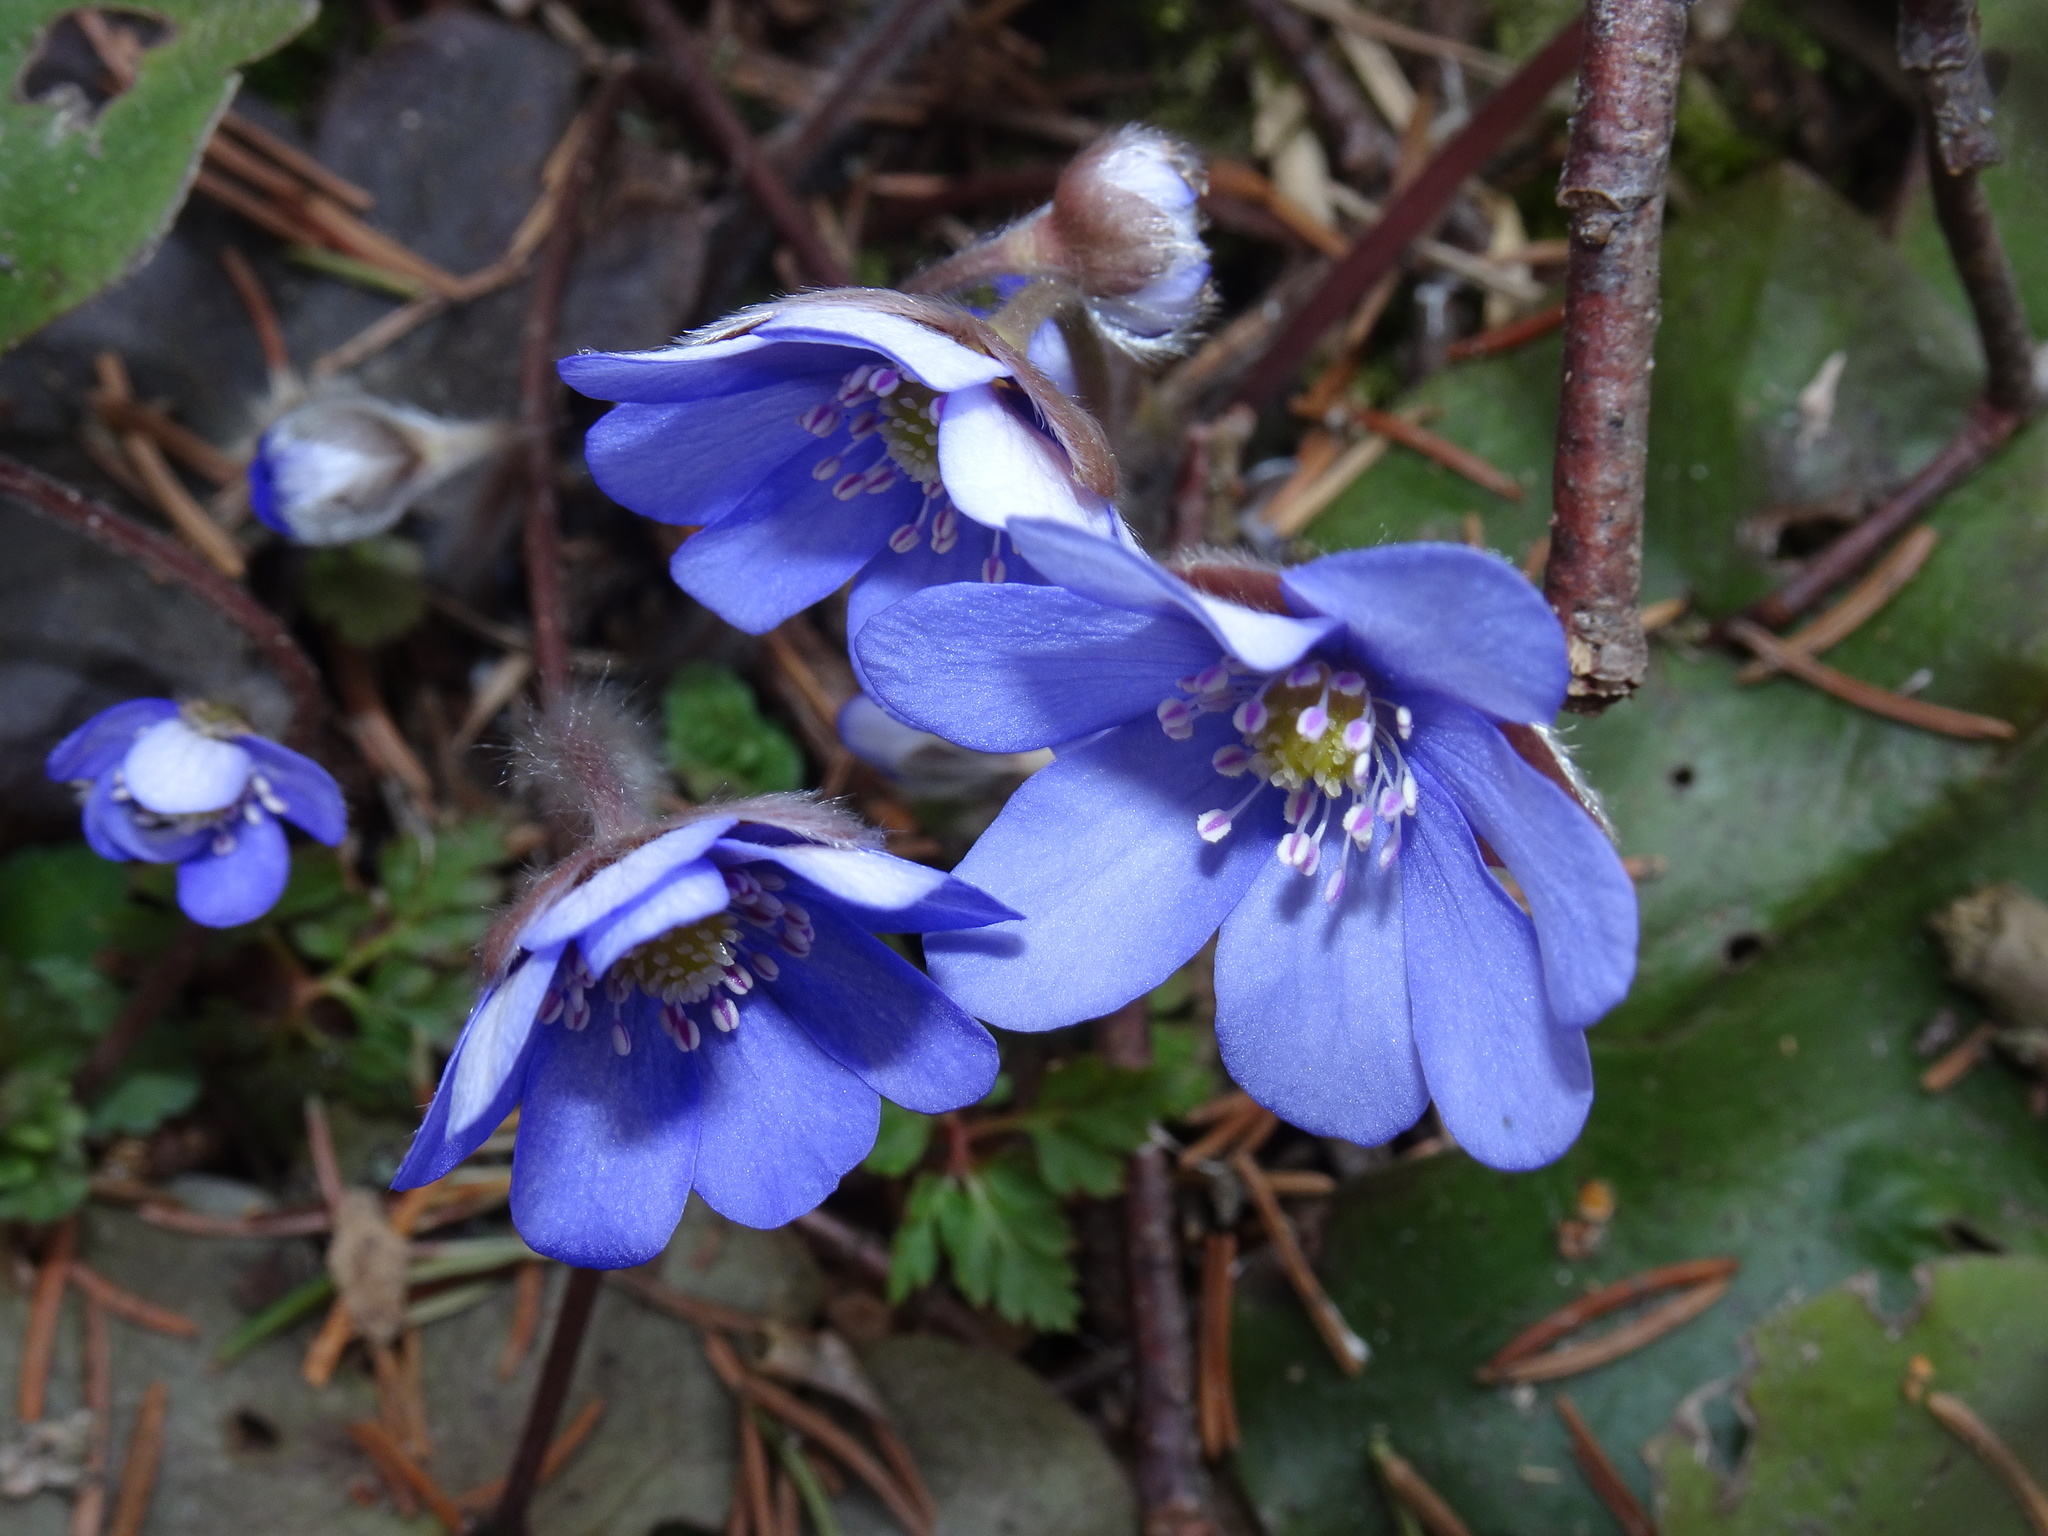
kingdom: Plantae
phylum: Tracheophyta
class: Magnoliopsida
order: Ranunculales
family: Ranunculaceae
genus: Hepatica
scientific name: Hepatica nobilis
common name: Liverleaf
